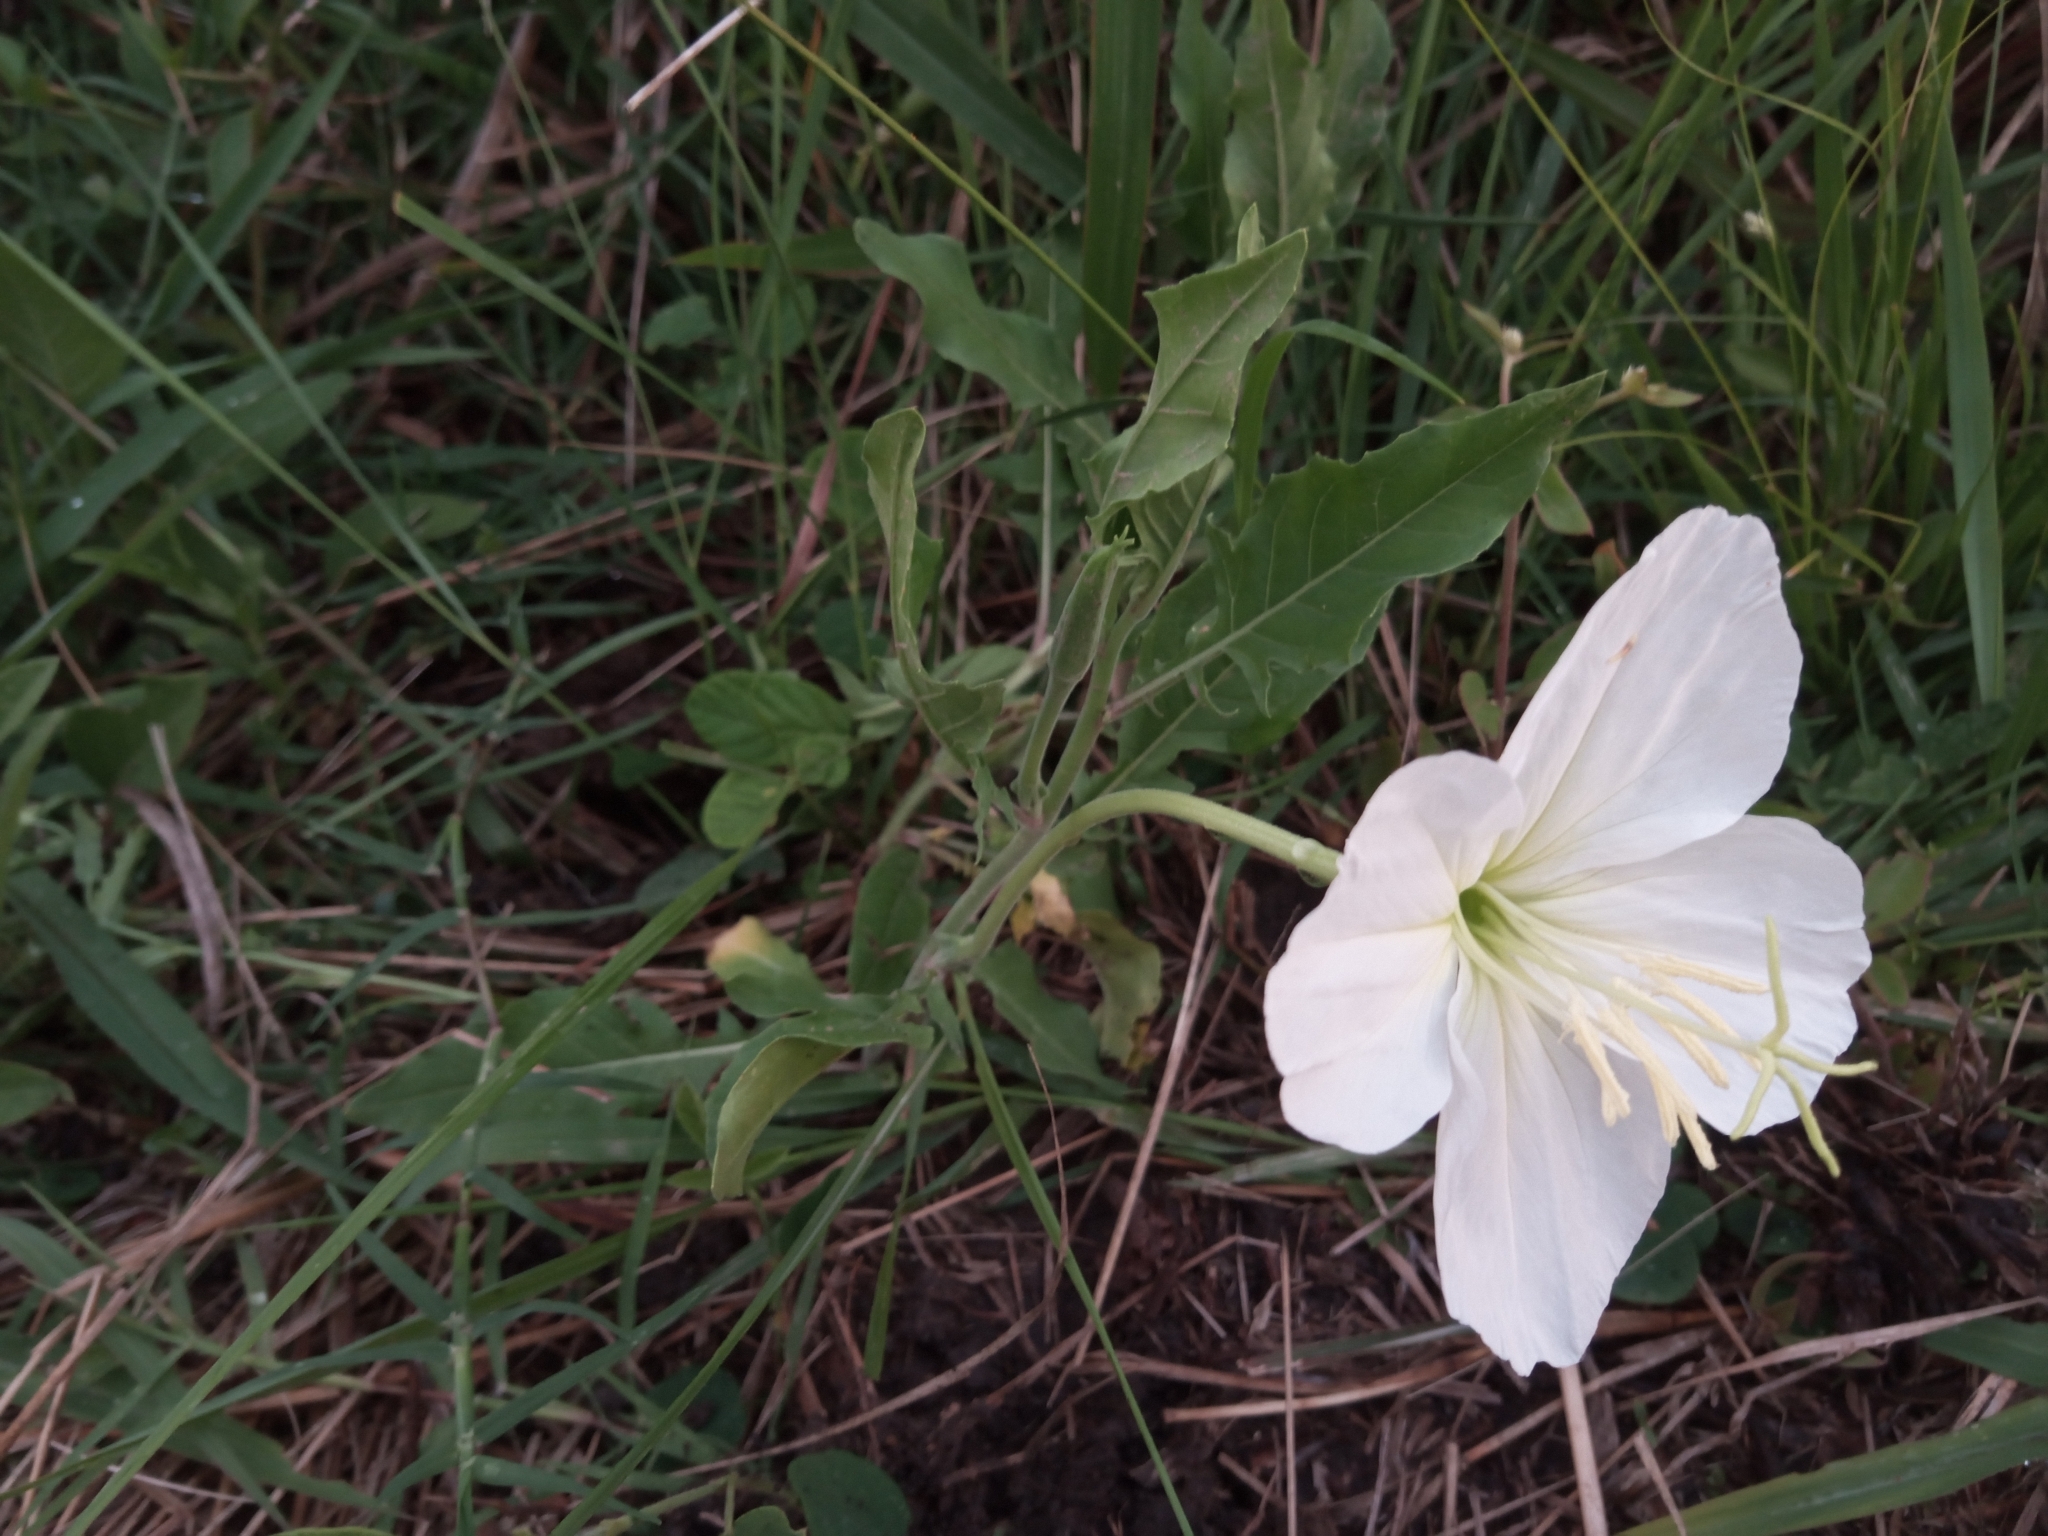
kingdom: Plantae
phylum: Tracheophyta
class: Magnoliopsida
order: Myrtales
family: Onagraceae
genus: Oenothera
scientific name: Oenothera centaurifolia
